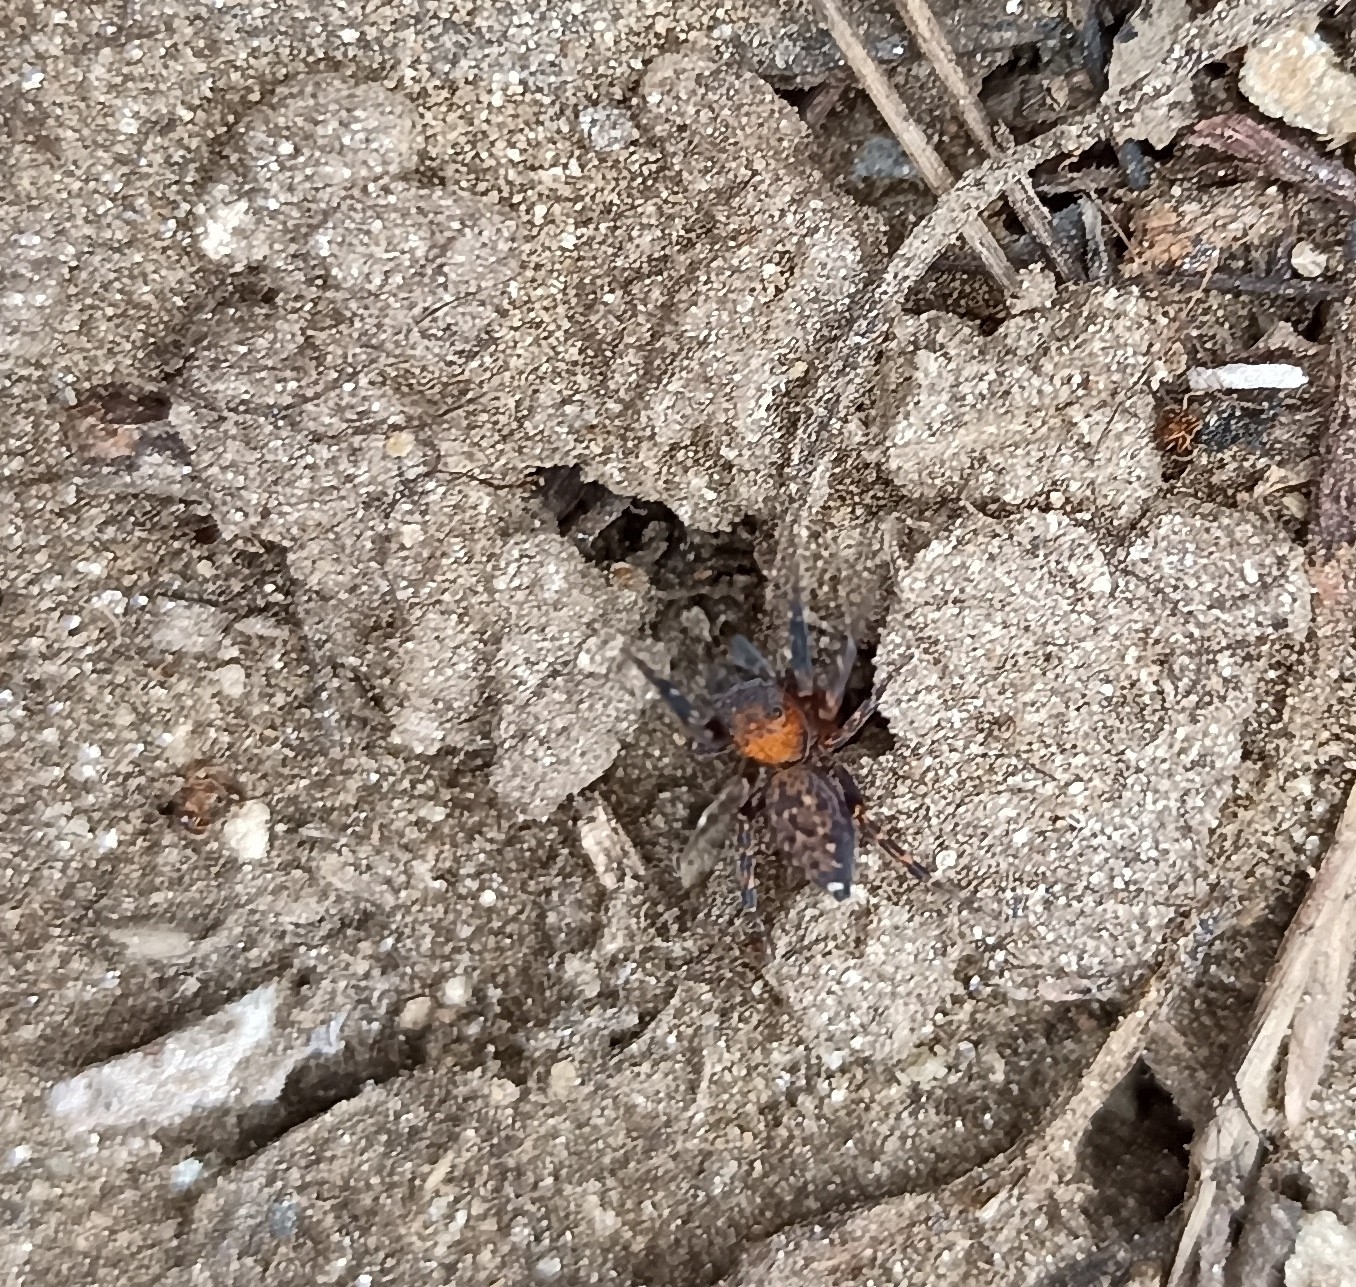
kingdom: Animalia
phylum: Arthropoda
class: Arachnida
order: Araneae
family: Salticidae
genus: Cyrba
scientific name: Cyrba algerina
